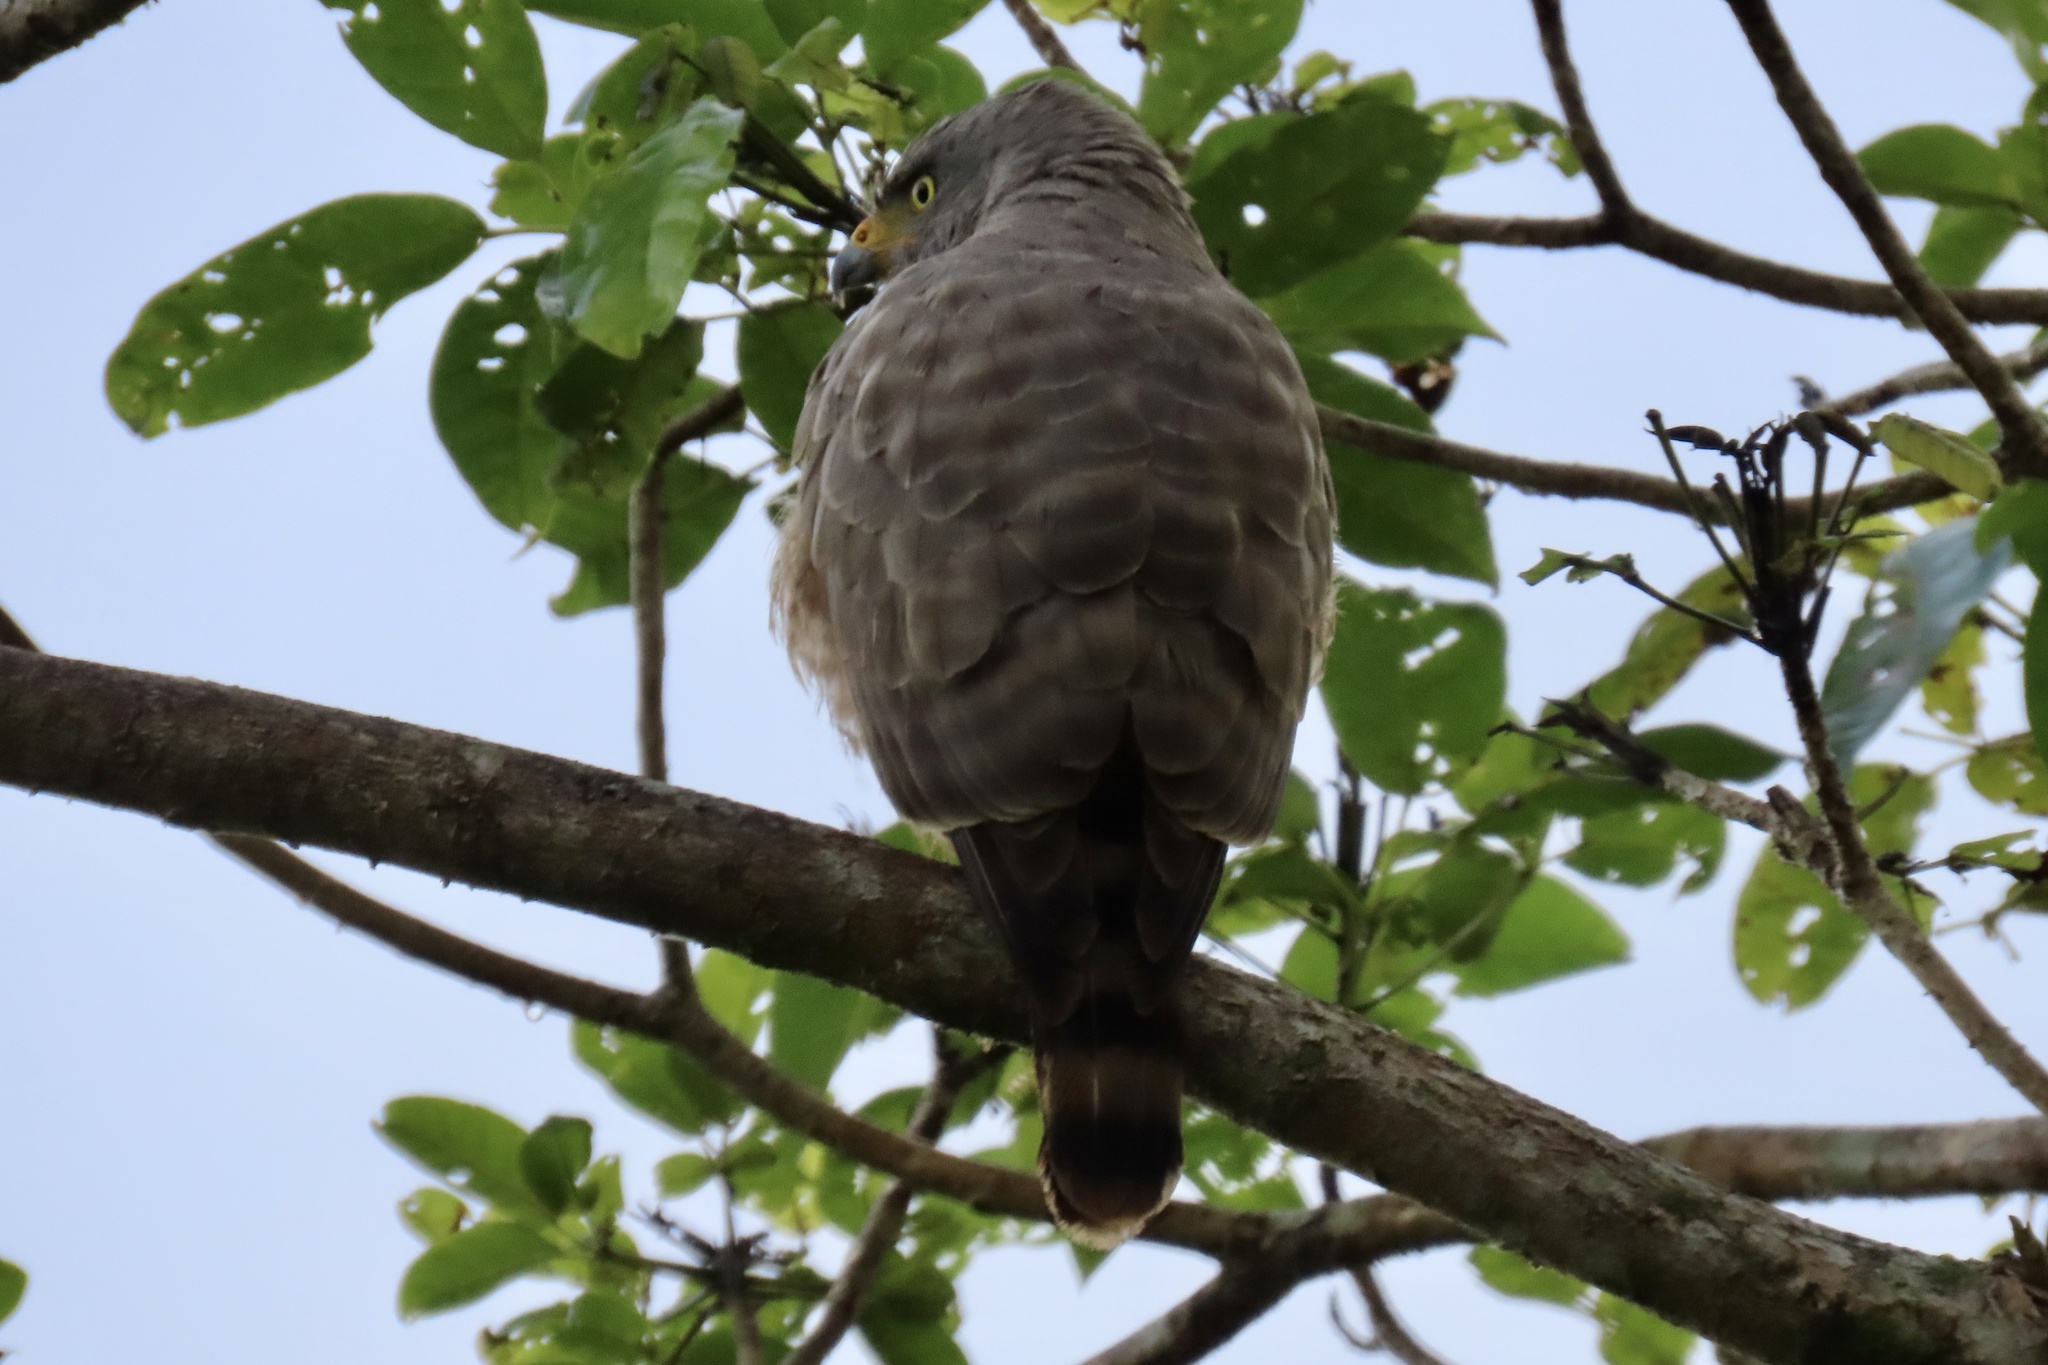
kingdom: Animalia
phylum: Chordata
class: Aves
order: Accipitriformes
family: Accipitridae
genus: Rupornis
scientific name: Rupornis magnirostris
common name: Roadside hawk
